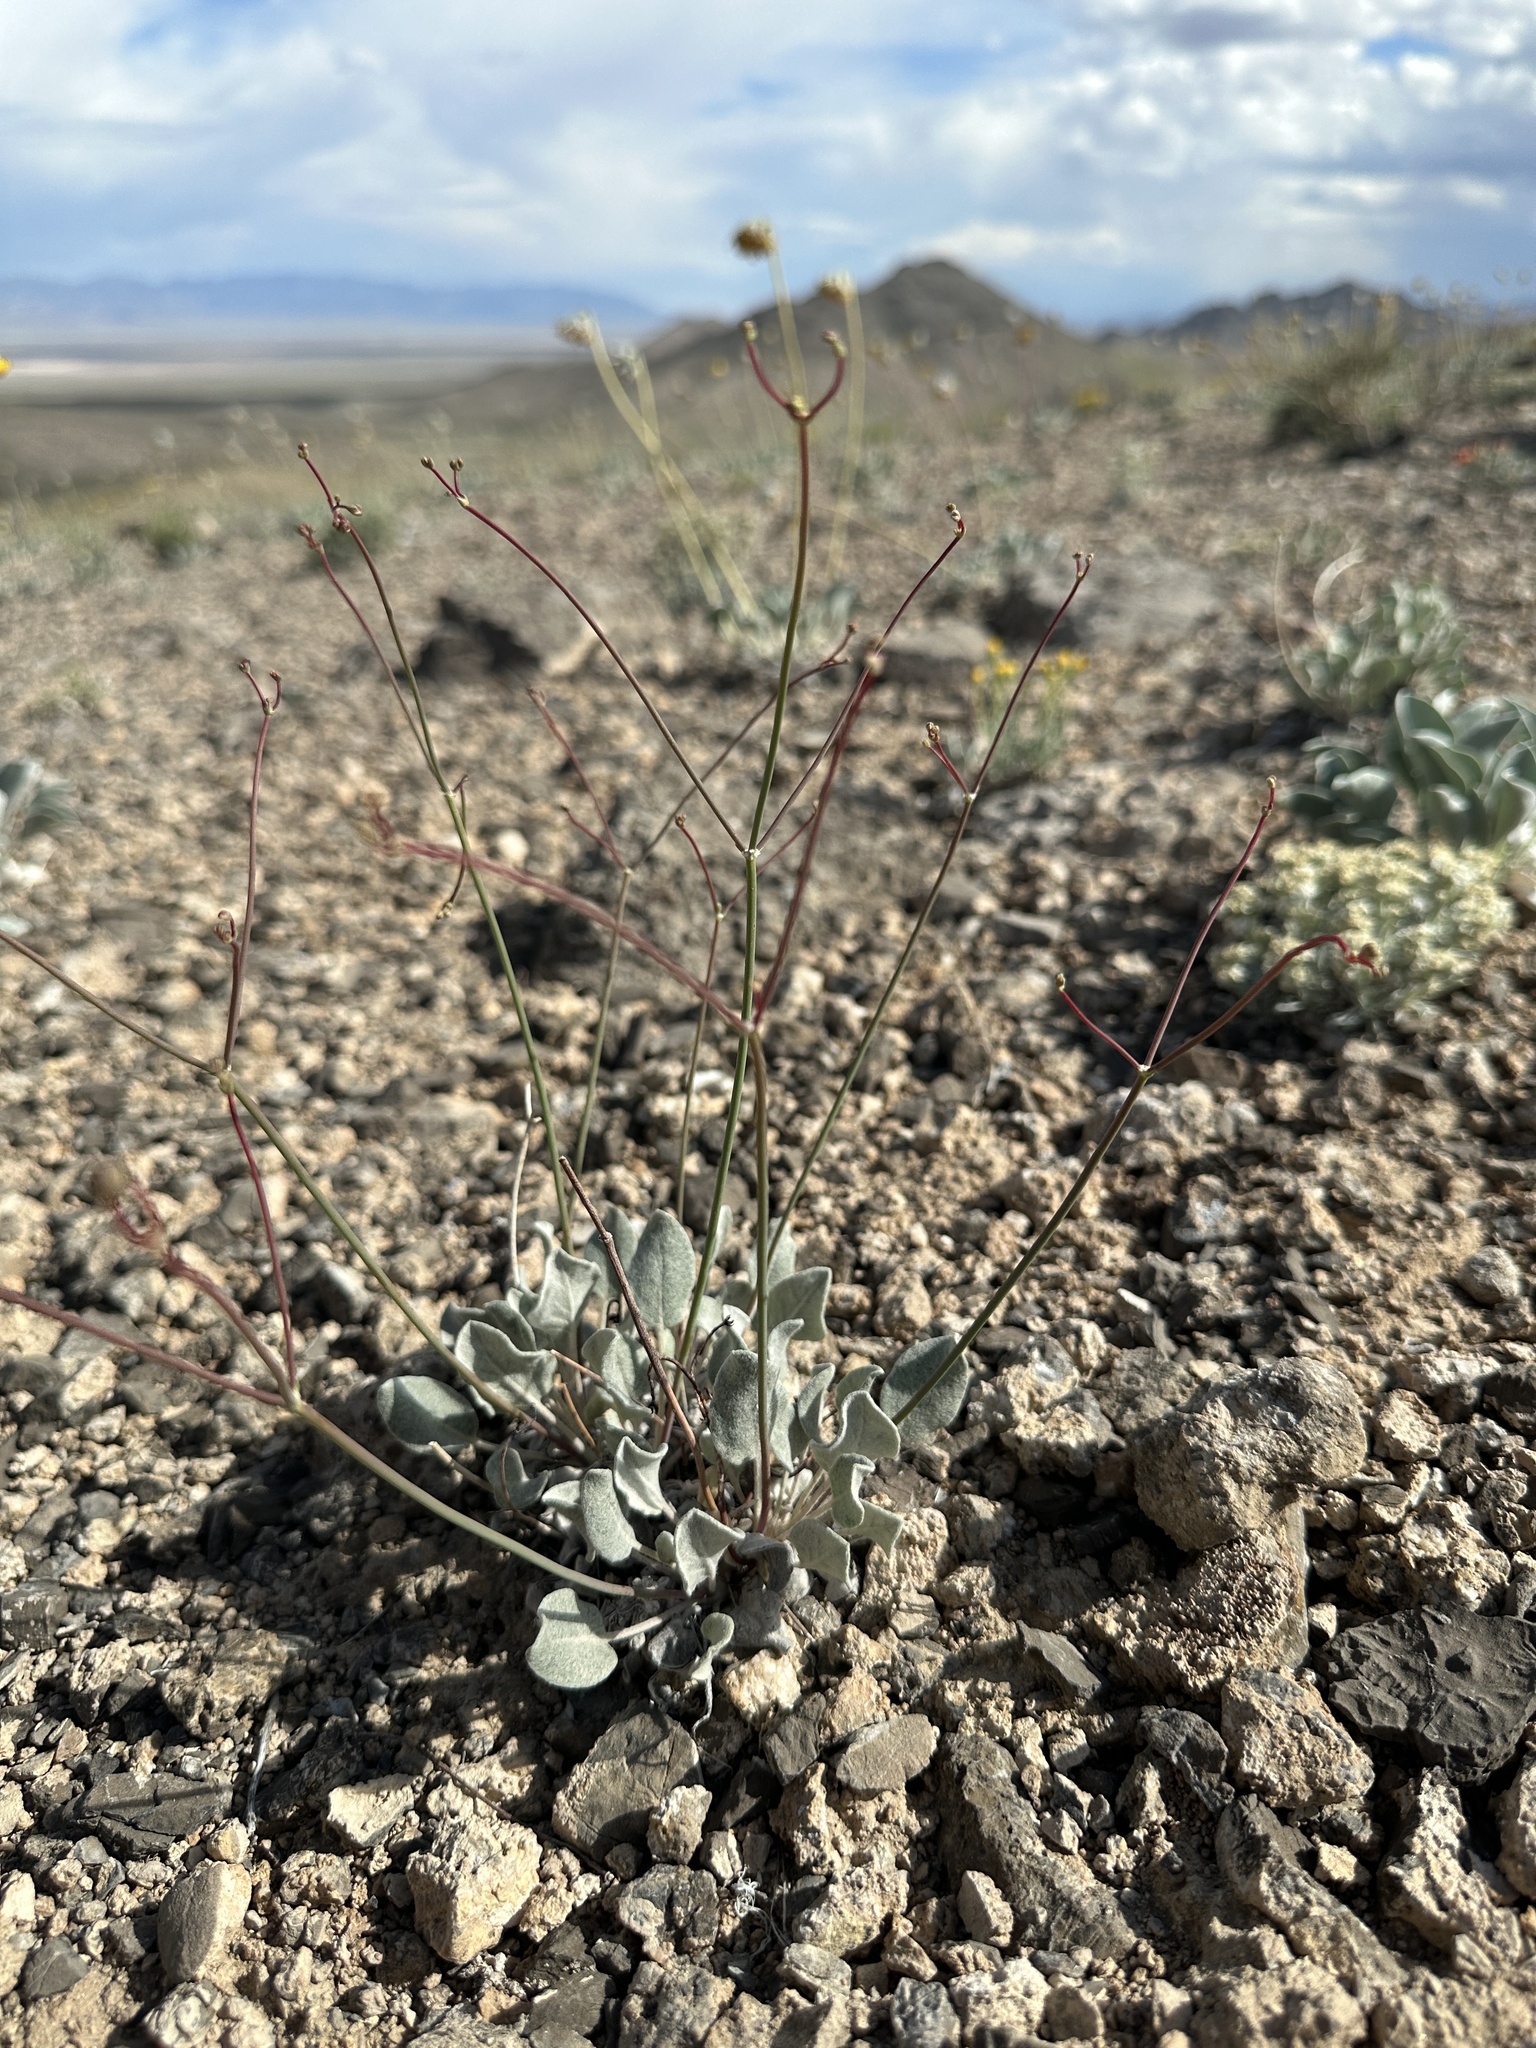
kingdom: Plantae
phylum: Tracheophyta
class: Magnoliopsida
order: Caryophyllales
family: Polygonaceae
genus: Eriogonum
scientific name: Eriogonum eremicum
